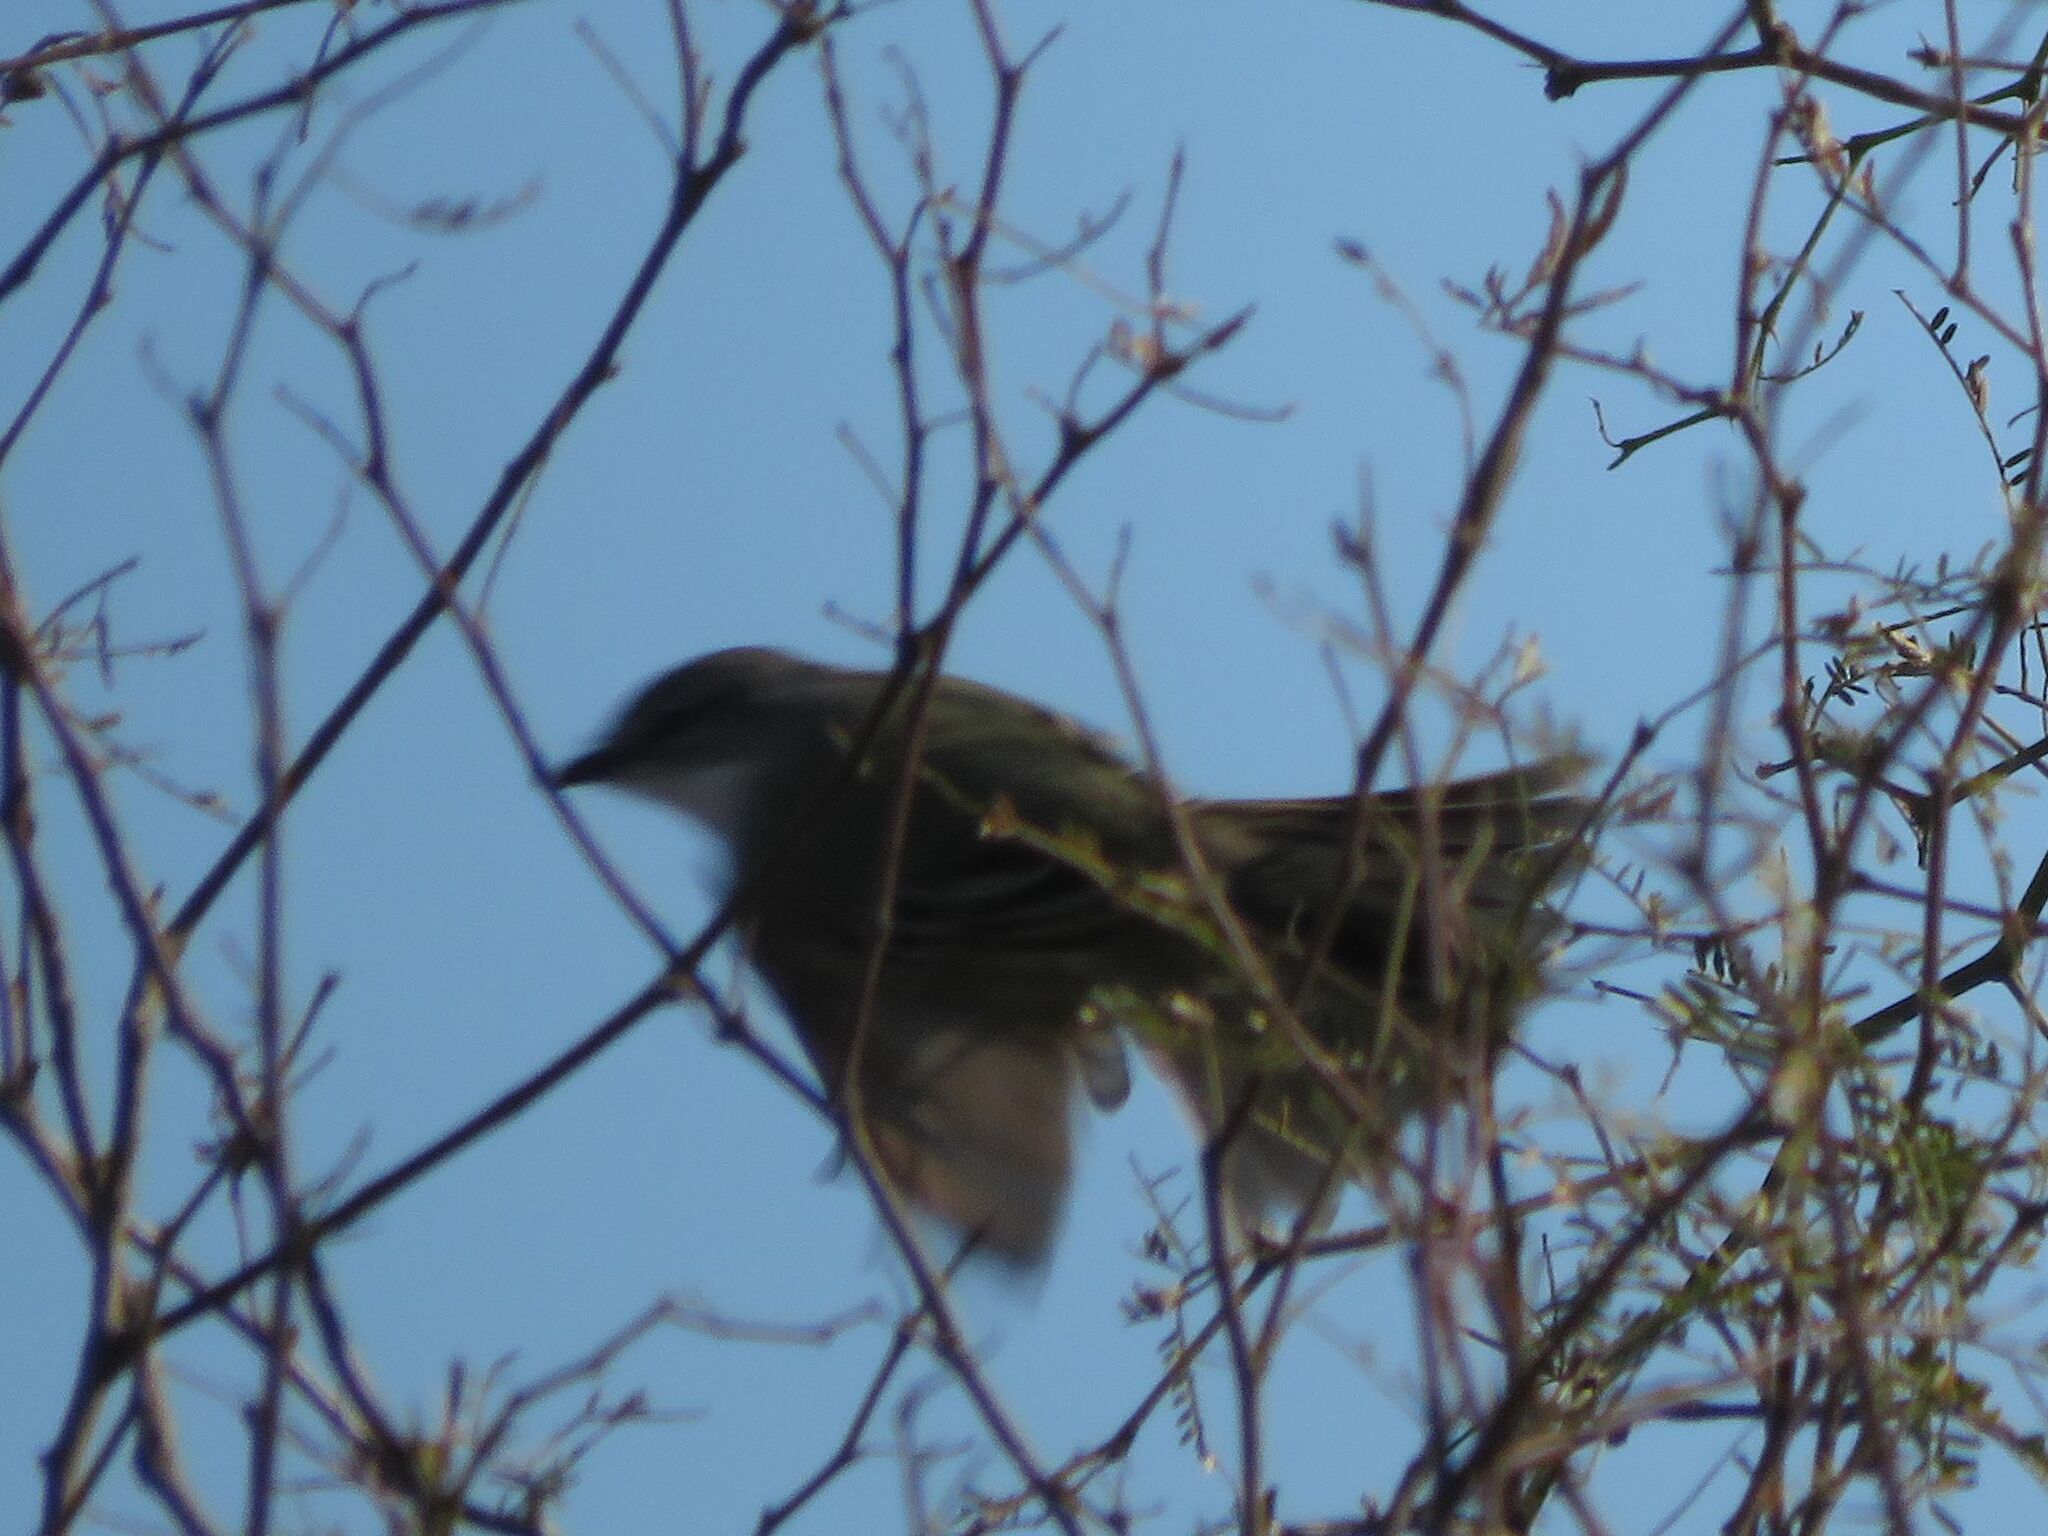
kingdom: Animalia
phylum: Chordata
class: Aves
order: Passeriformes
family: Tyrannidae
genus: Suiriri
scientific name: Suiriri suiriri
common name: Suiriri flycatcher
